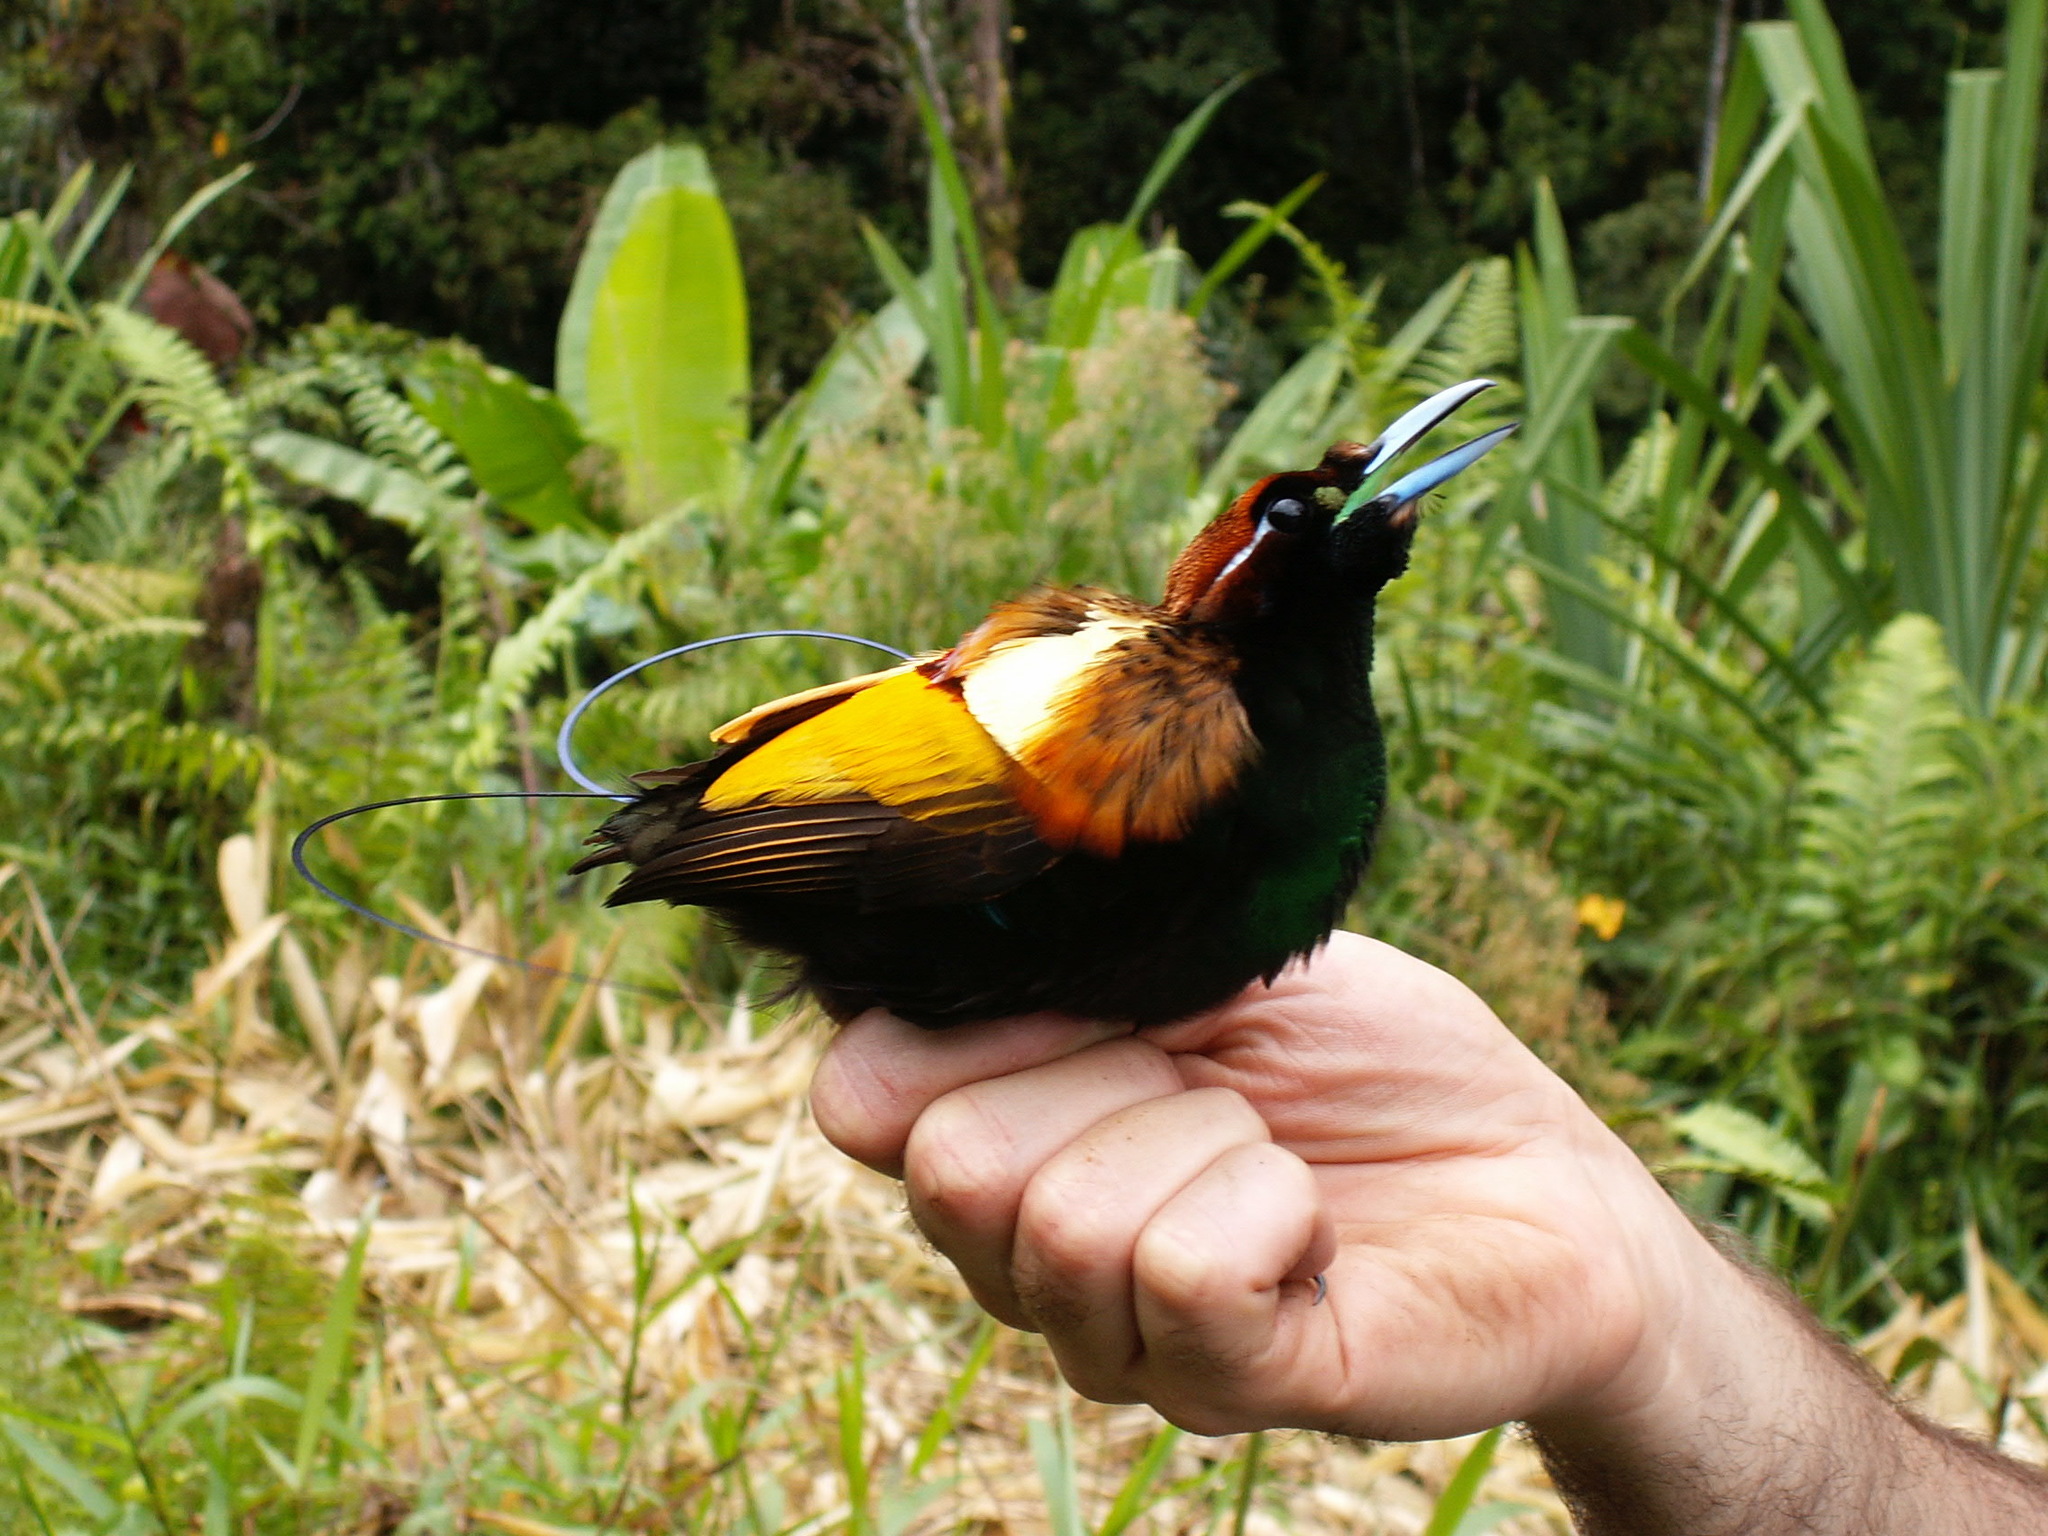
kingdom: Animalia
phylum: Chordata
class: Aves
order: Passeriformes
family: Paradisaeidae
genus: Diphyllodes
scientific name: Diphyllodes magnificus
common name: Magnificent bird-of-paradise
